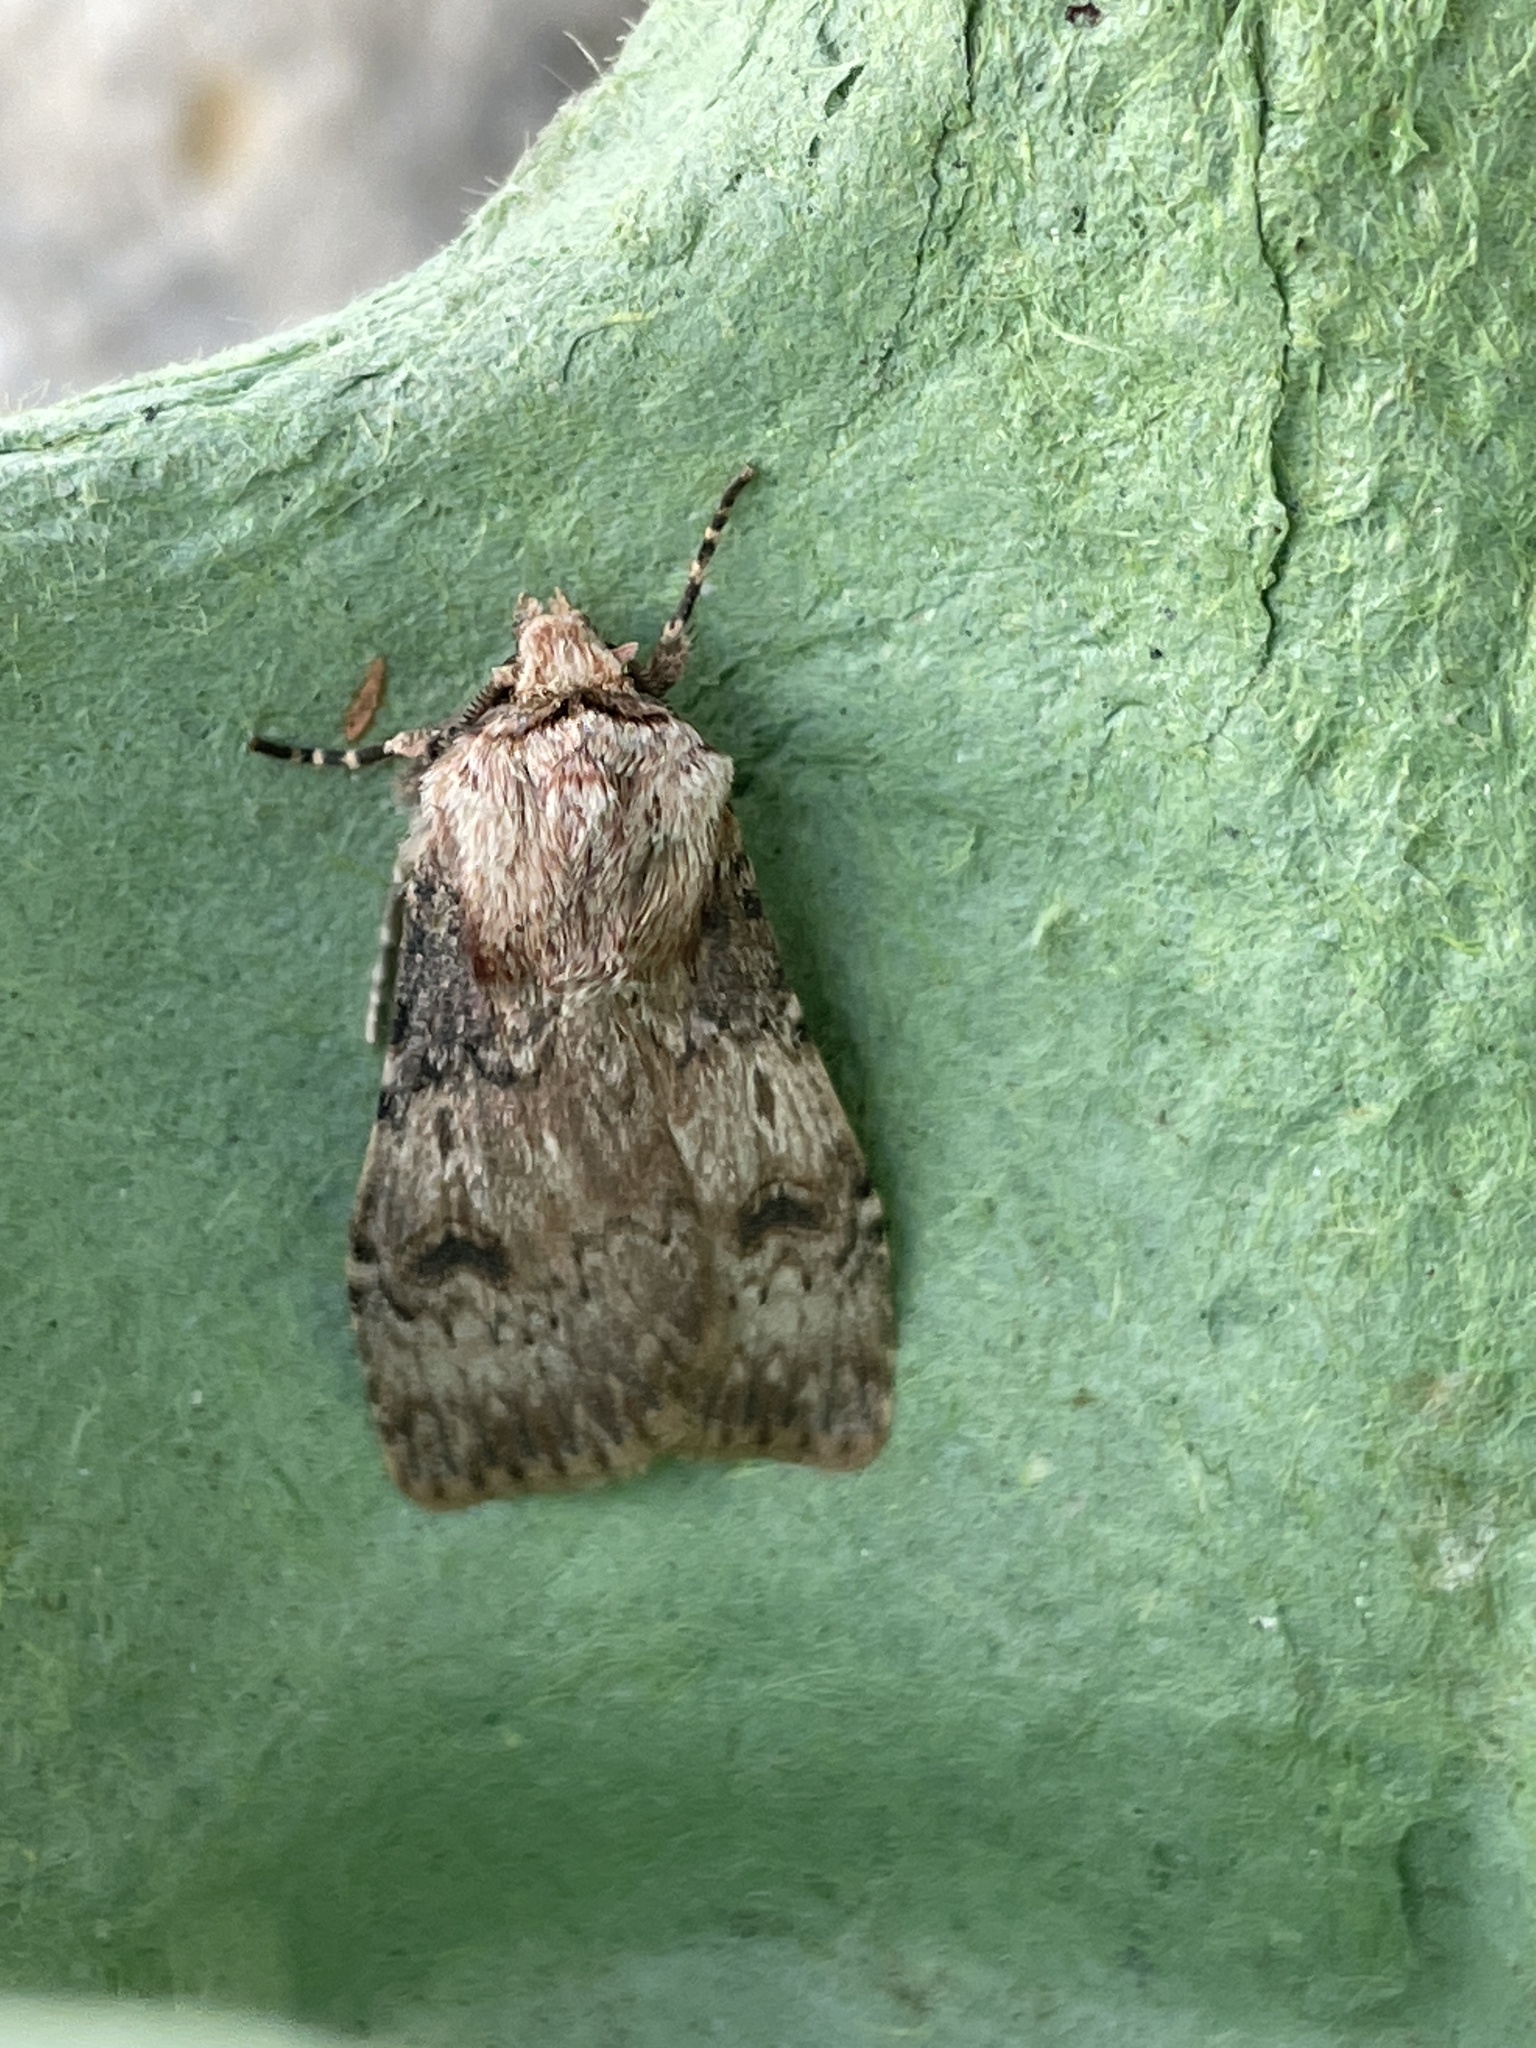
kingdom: Animalia
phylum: Arthropoda
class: Insecta
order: Lepidoptera
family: Noctuidae
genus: Agrotis
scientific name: Agrotis puta
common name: Shuttle-shaped dart
